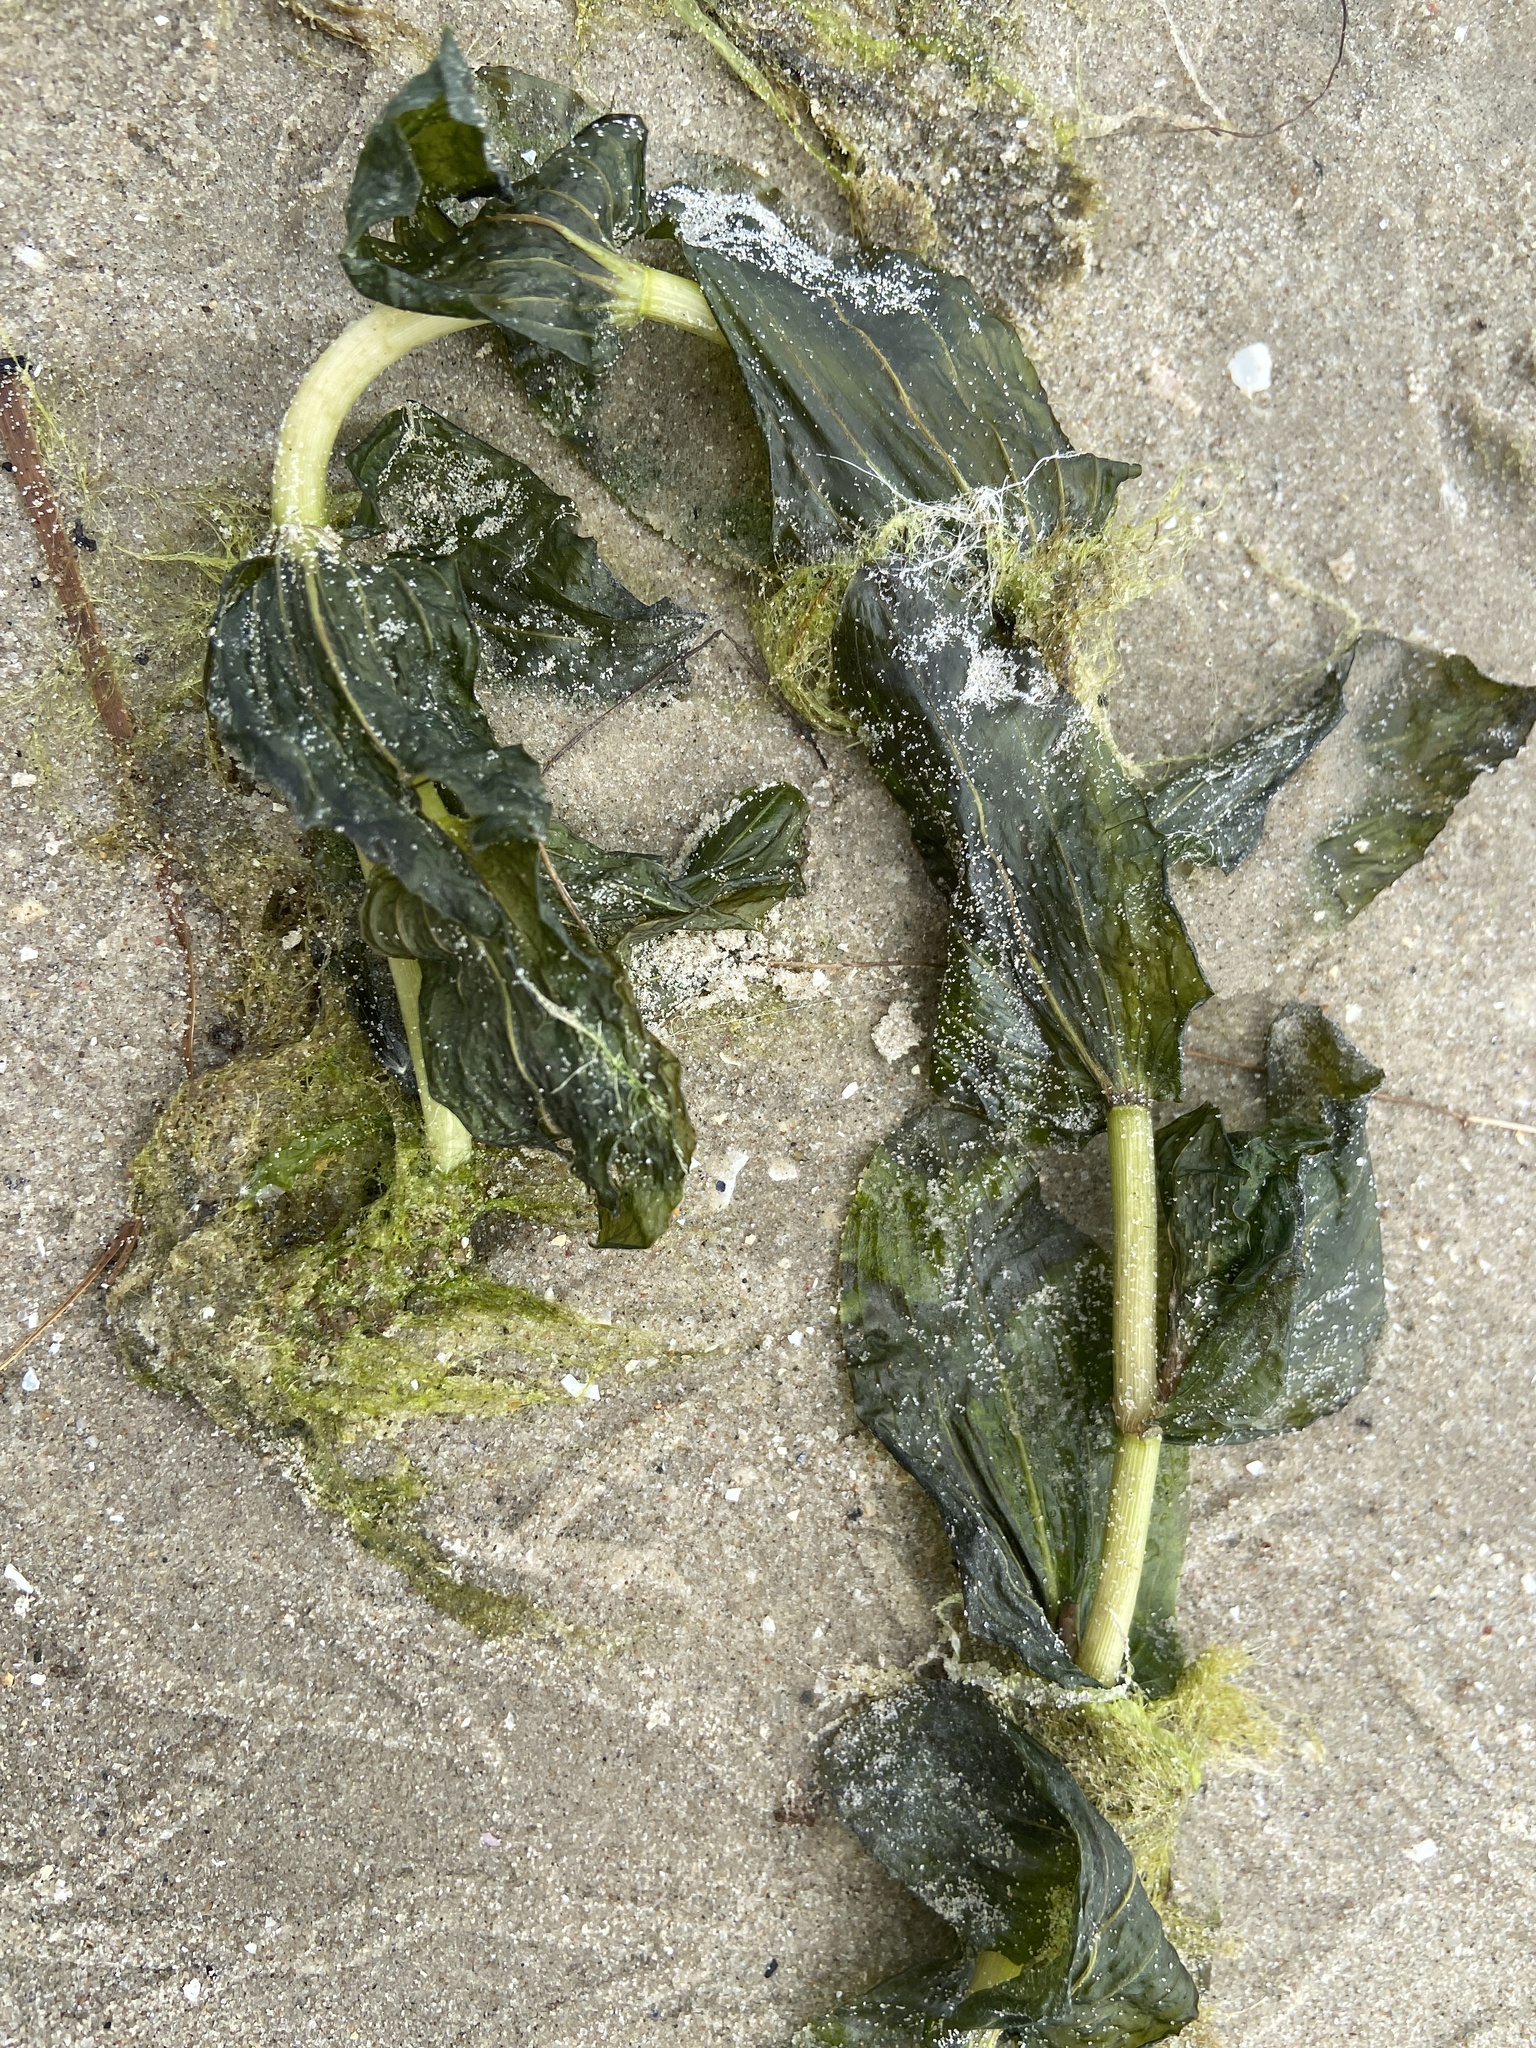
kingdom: Plantae
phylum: Tracheophyta
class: Liliopsida
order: Alismatales
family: Potamogetonaceae
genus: Potamogeton
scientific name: Potamogeton perfoliatus
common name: Perfoliate pondweed
